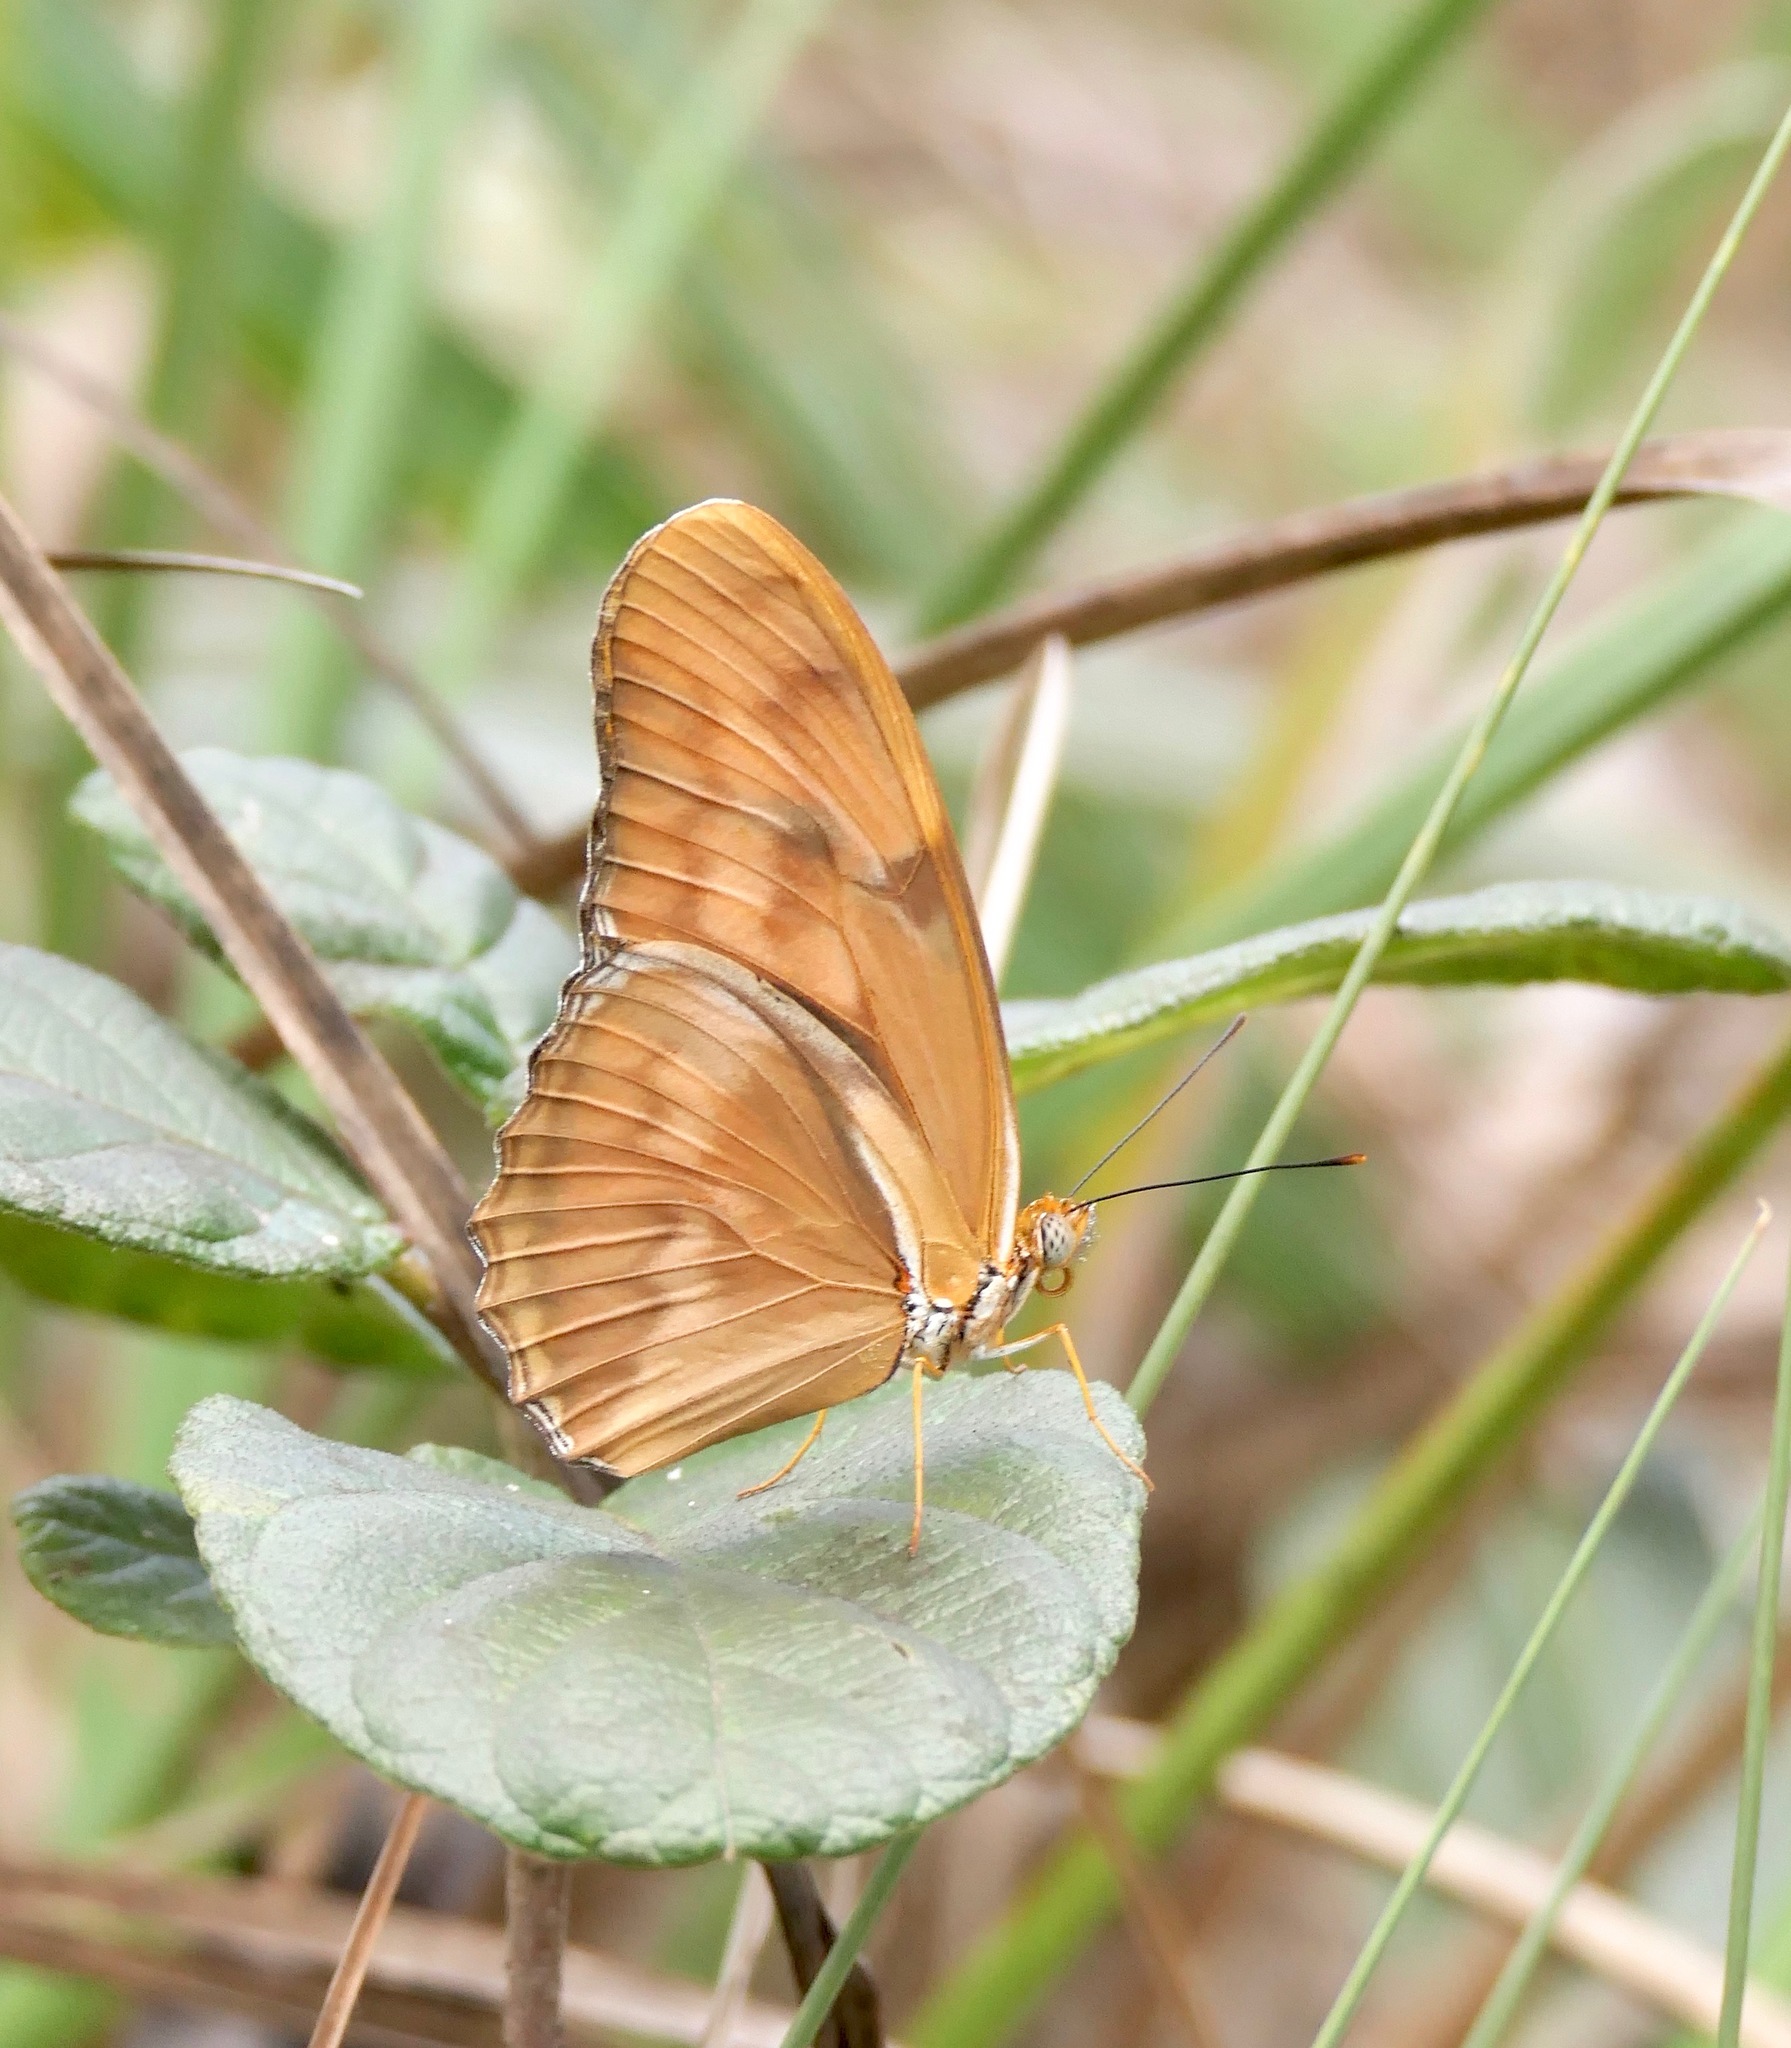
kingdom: Animalia
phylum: Arthropoda
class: Insecta
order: Lepidoptera
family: Nymphalidae
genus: Dryas
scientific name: Dryas iulia
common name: Flambeau
